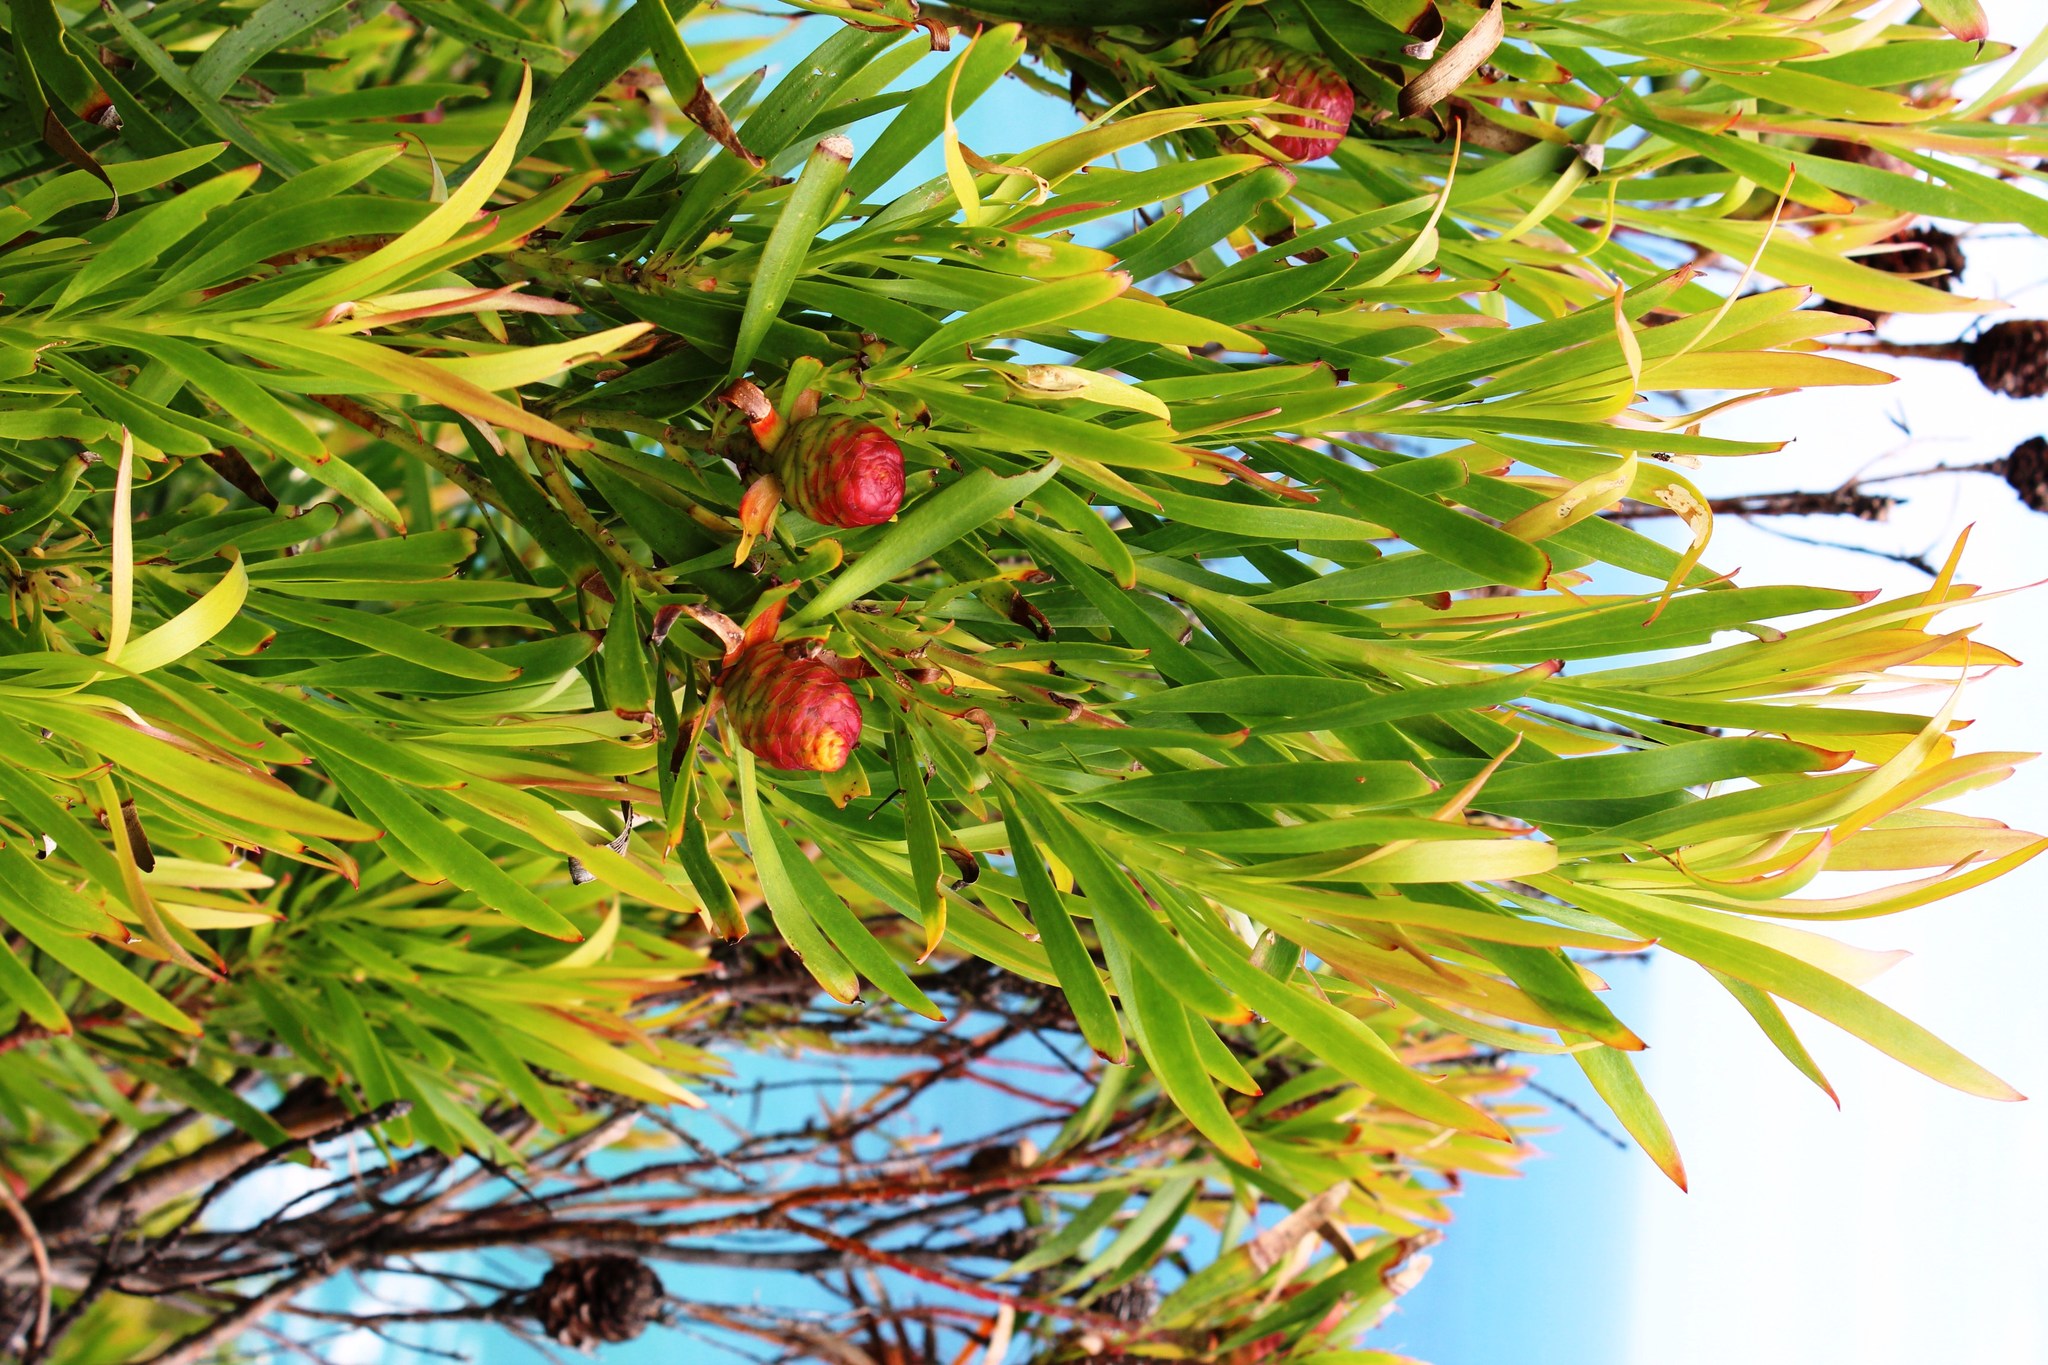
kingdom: Plantae
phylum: Tracheophyta
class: Magnoliopsida
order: Proteales
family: Proteaceae
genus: Leucadendron
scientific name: Leucadendron eucalyptifolium
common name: Gum-leaved conebush
